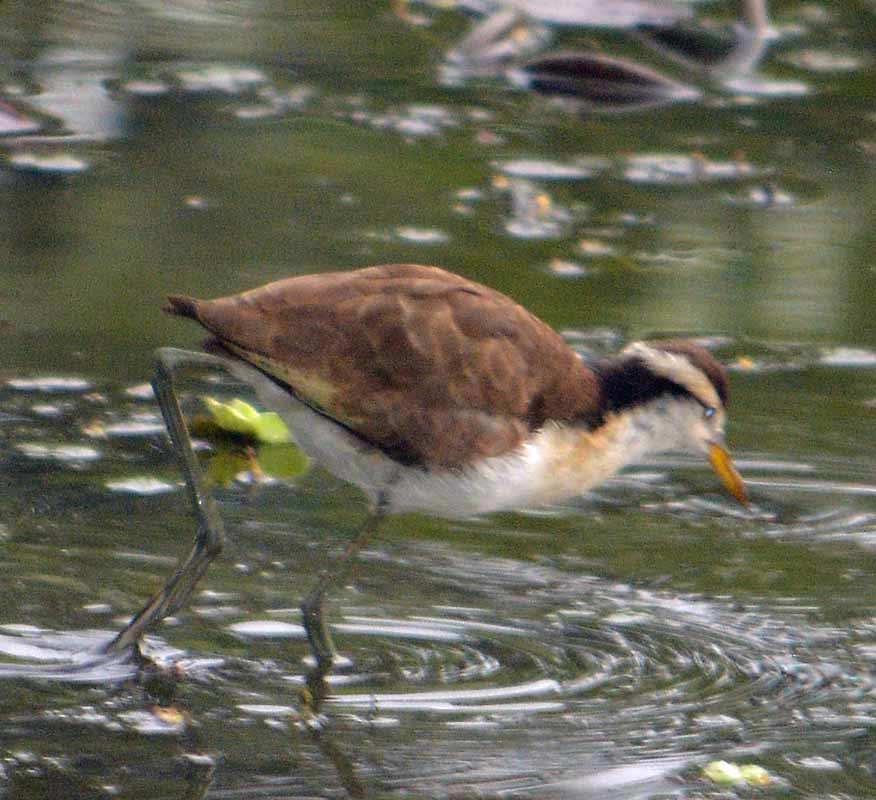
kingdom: Animalia
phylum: Chordata
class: Aves
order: Charadriiformes
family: Jacanidae
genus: Jacana
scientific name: Jacana spinosa
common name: Northern jacana
